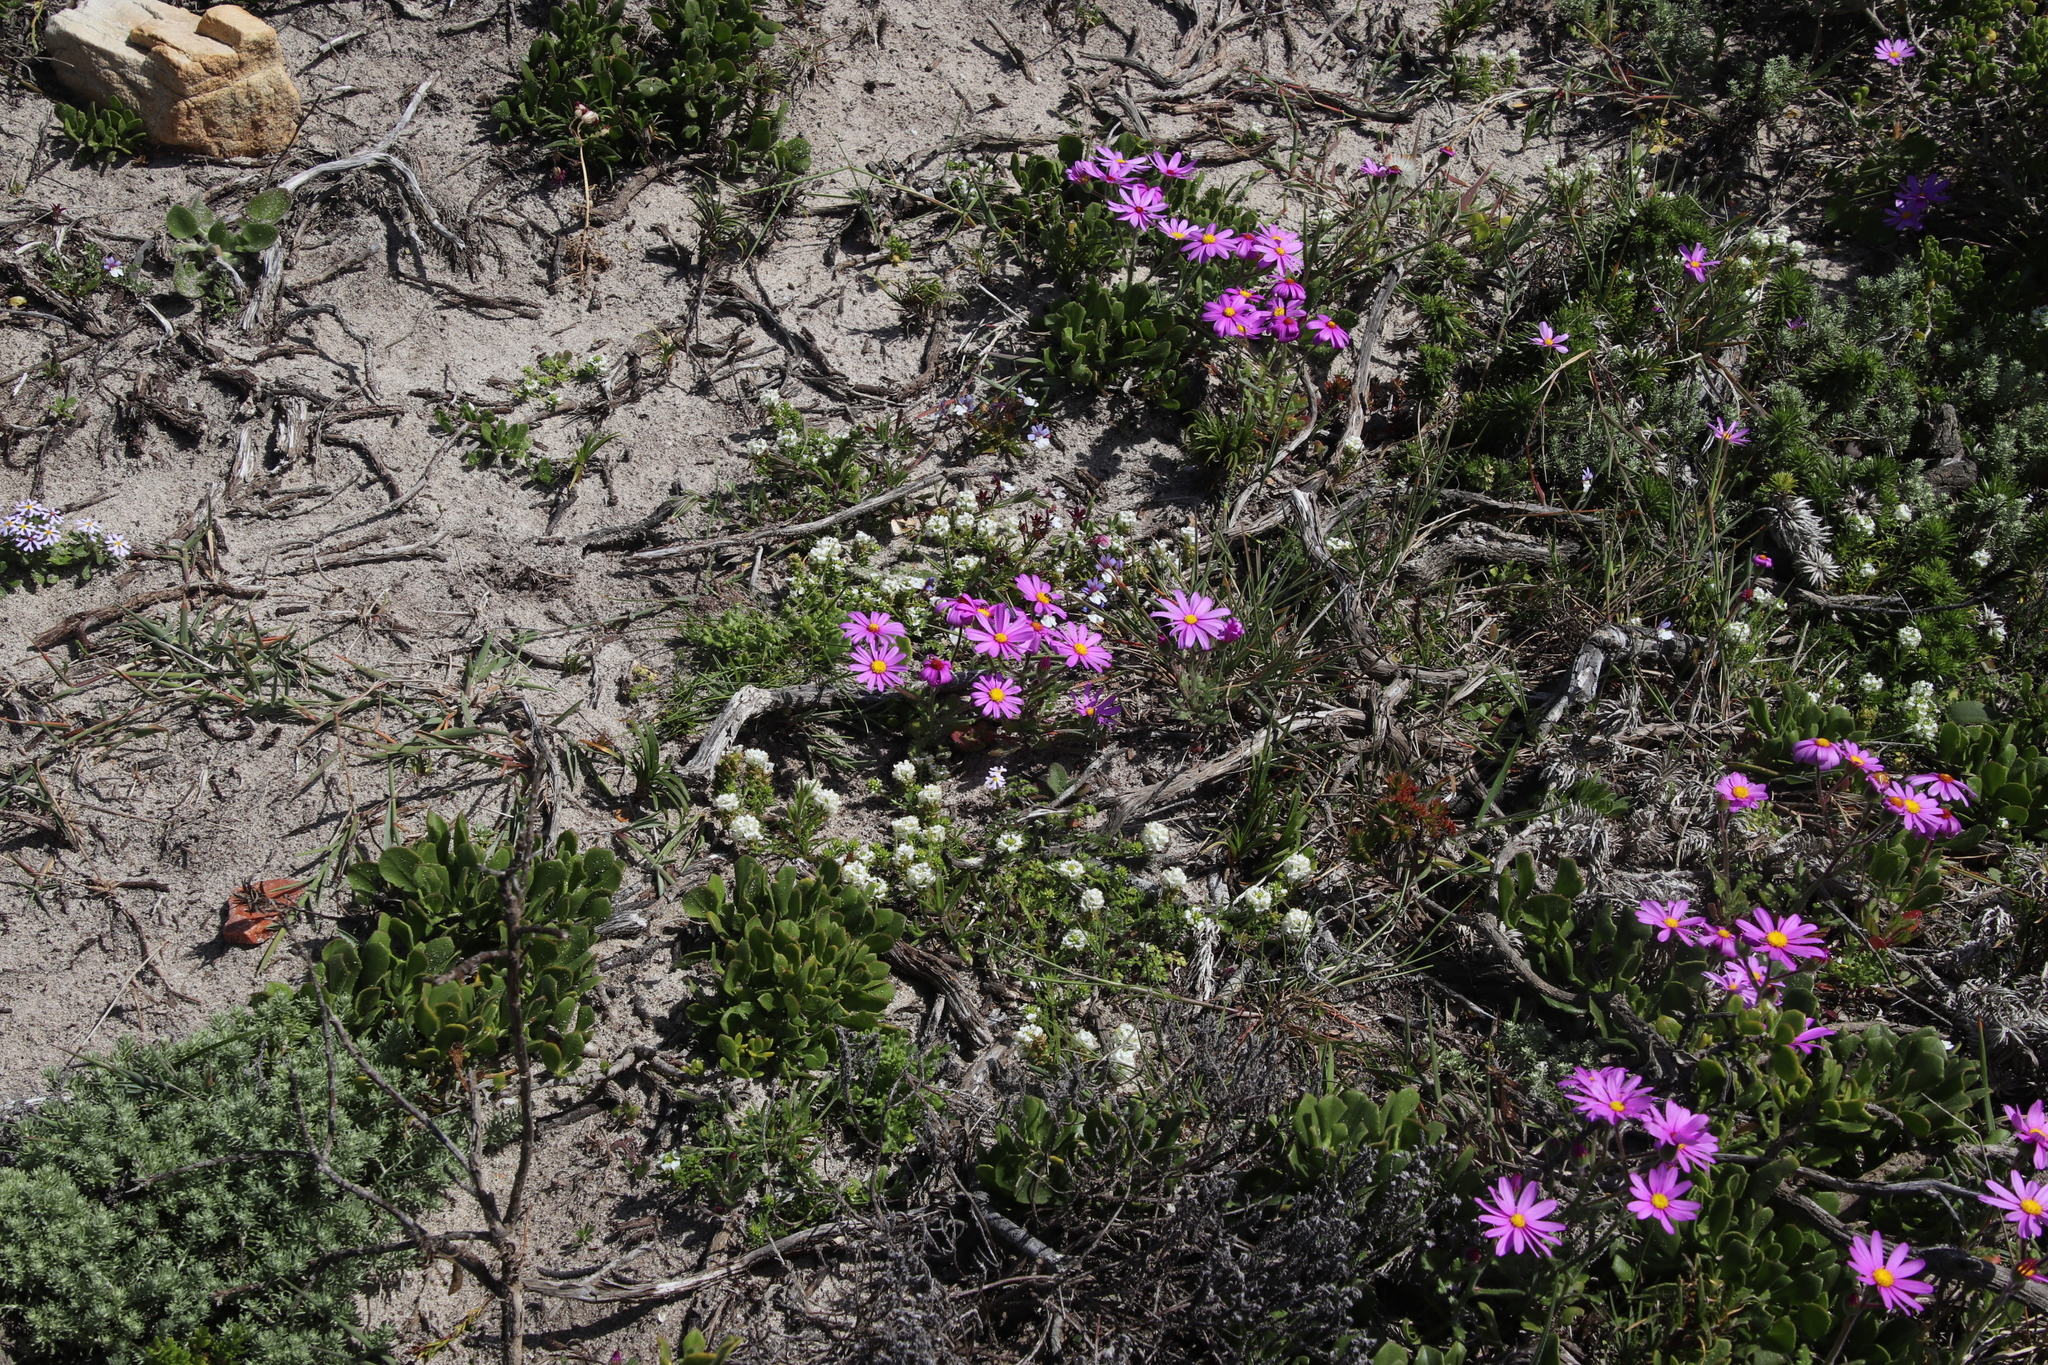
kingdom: Plantae
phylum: Tracheophyta
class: Magnoliopsida
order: Asterales
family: Asteraceae
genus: Senecio
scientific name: Senecio arenarius
